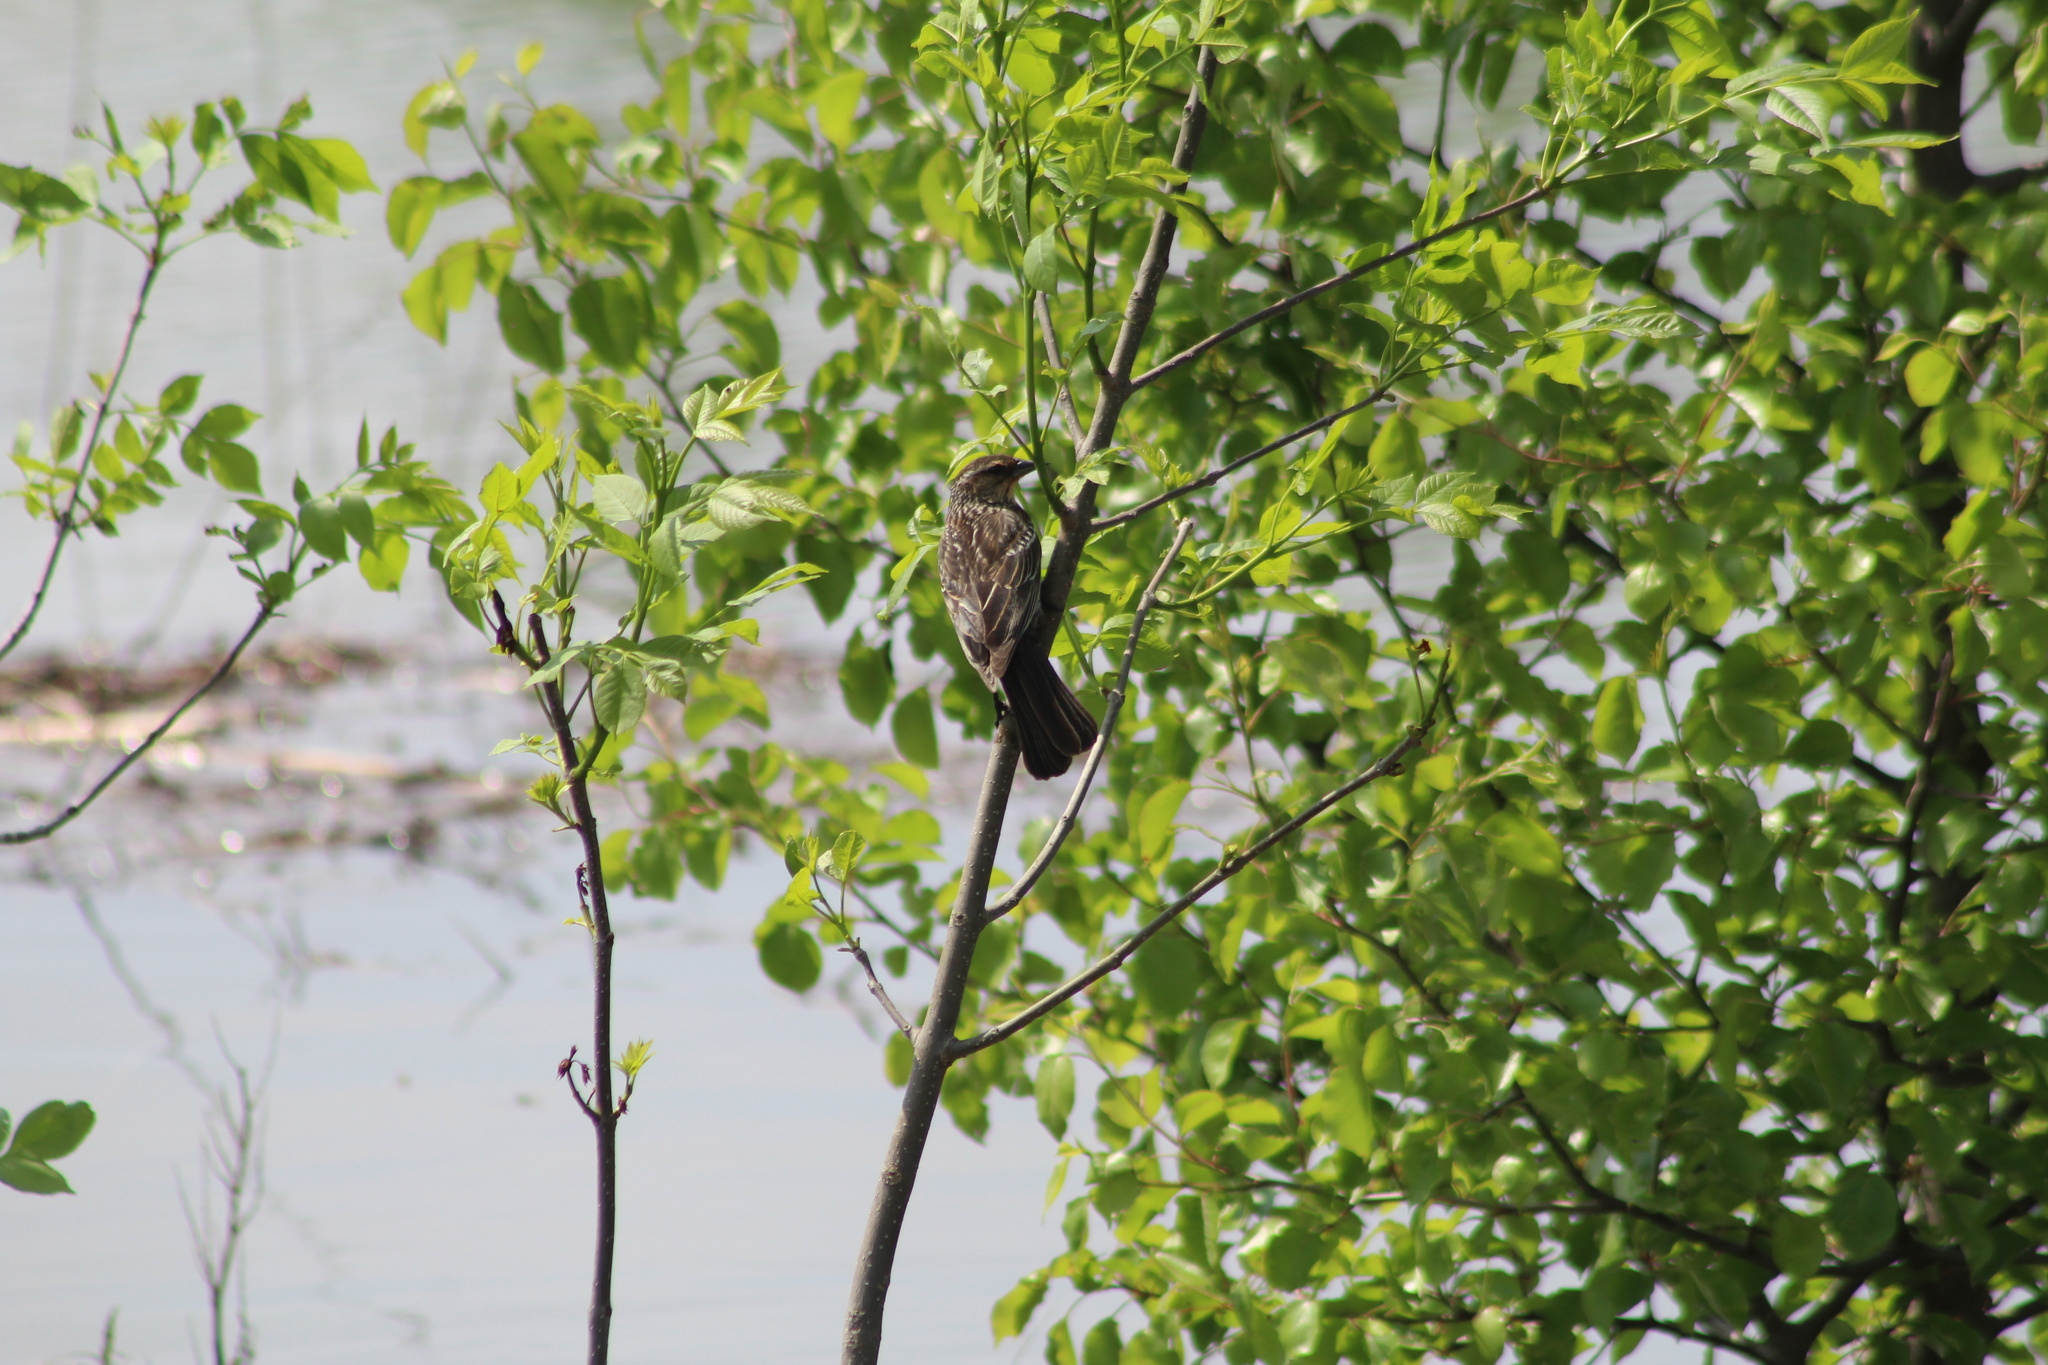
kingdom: Animalia
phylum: Chordata
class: Aves
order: Passeriformes
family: Icteridae
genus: Agelaius
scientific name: Agelaius phoeniceus
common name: Red-winged blackbird
